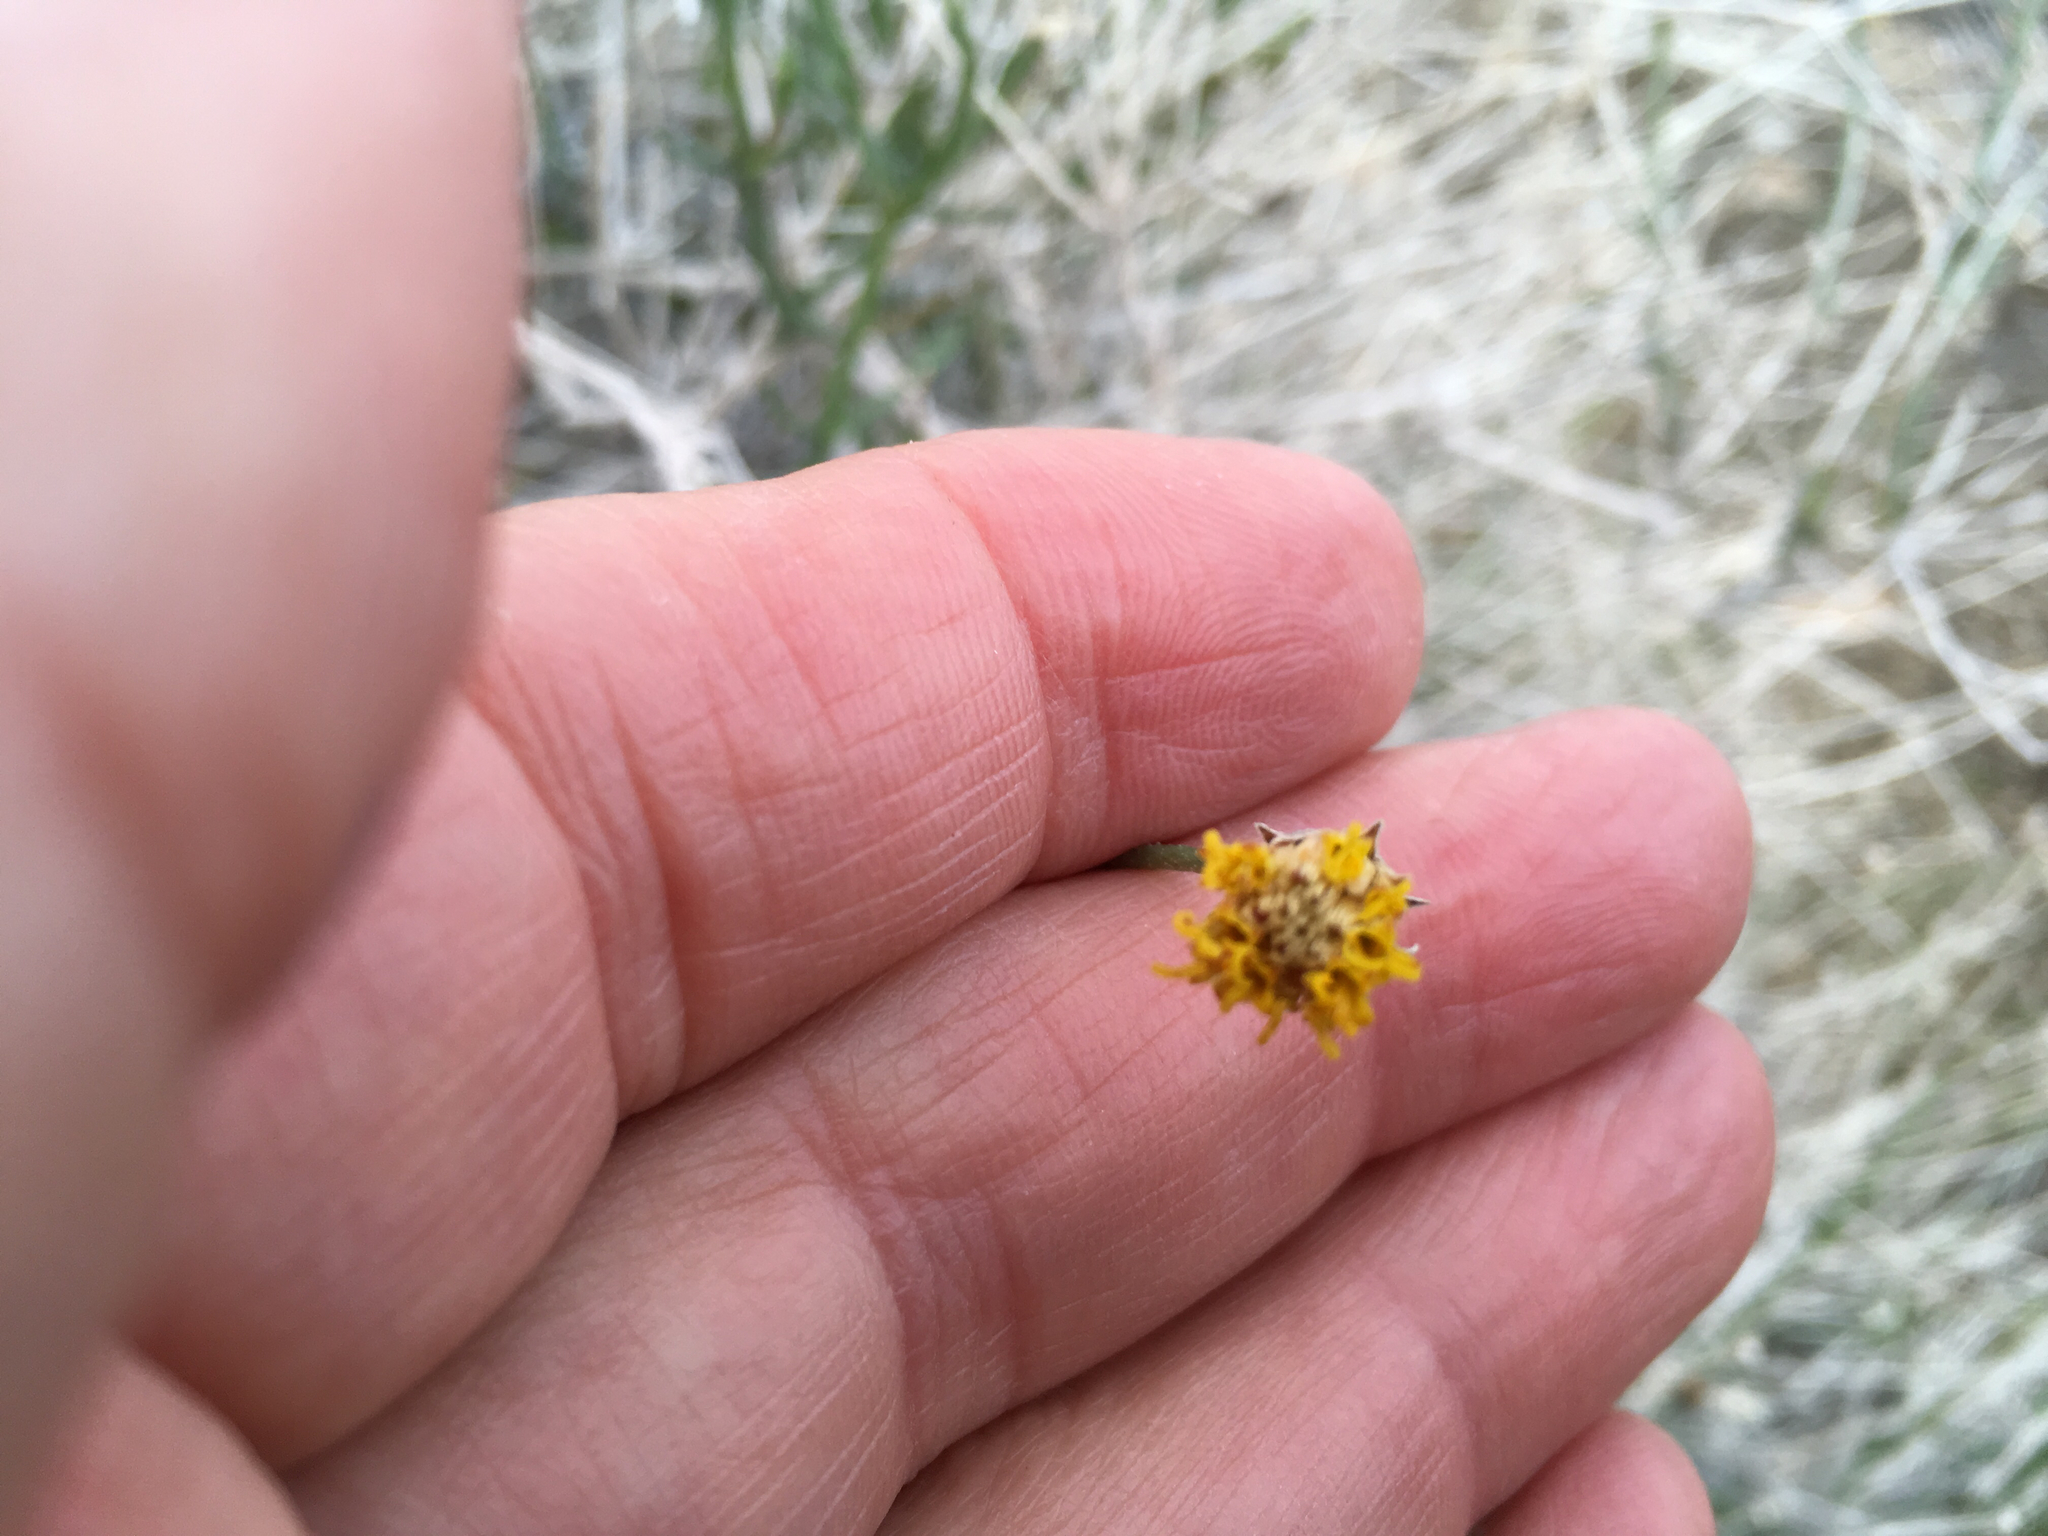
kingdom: Plantae
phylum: Tracheophyta
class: Magnoliopsida
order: Asterales
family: Asteraceae
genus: Bebbia
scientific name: Bebbia juncea
